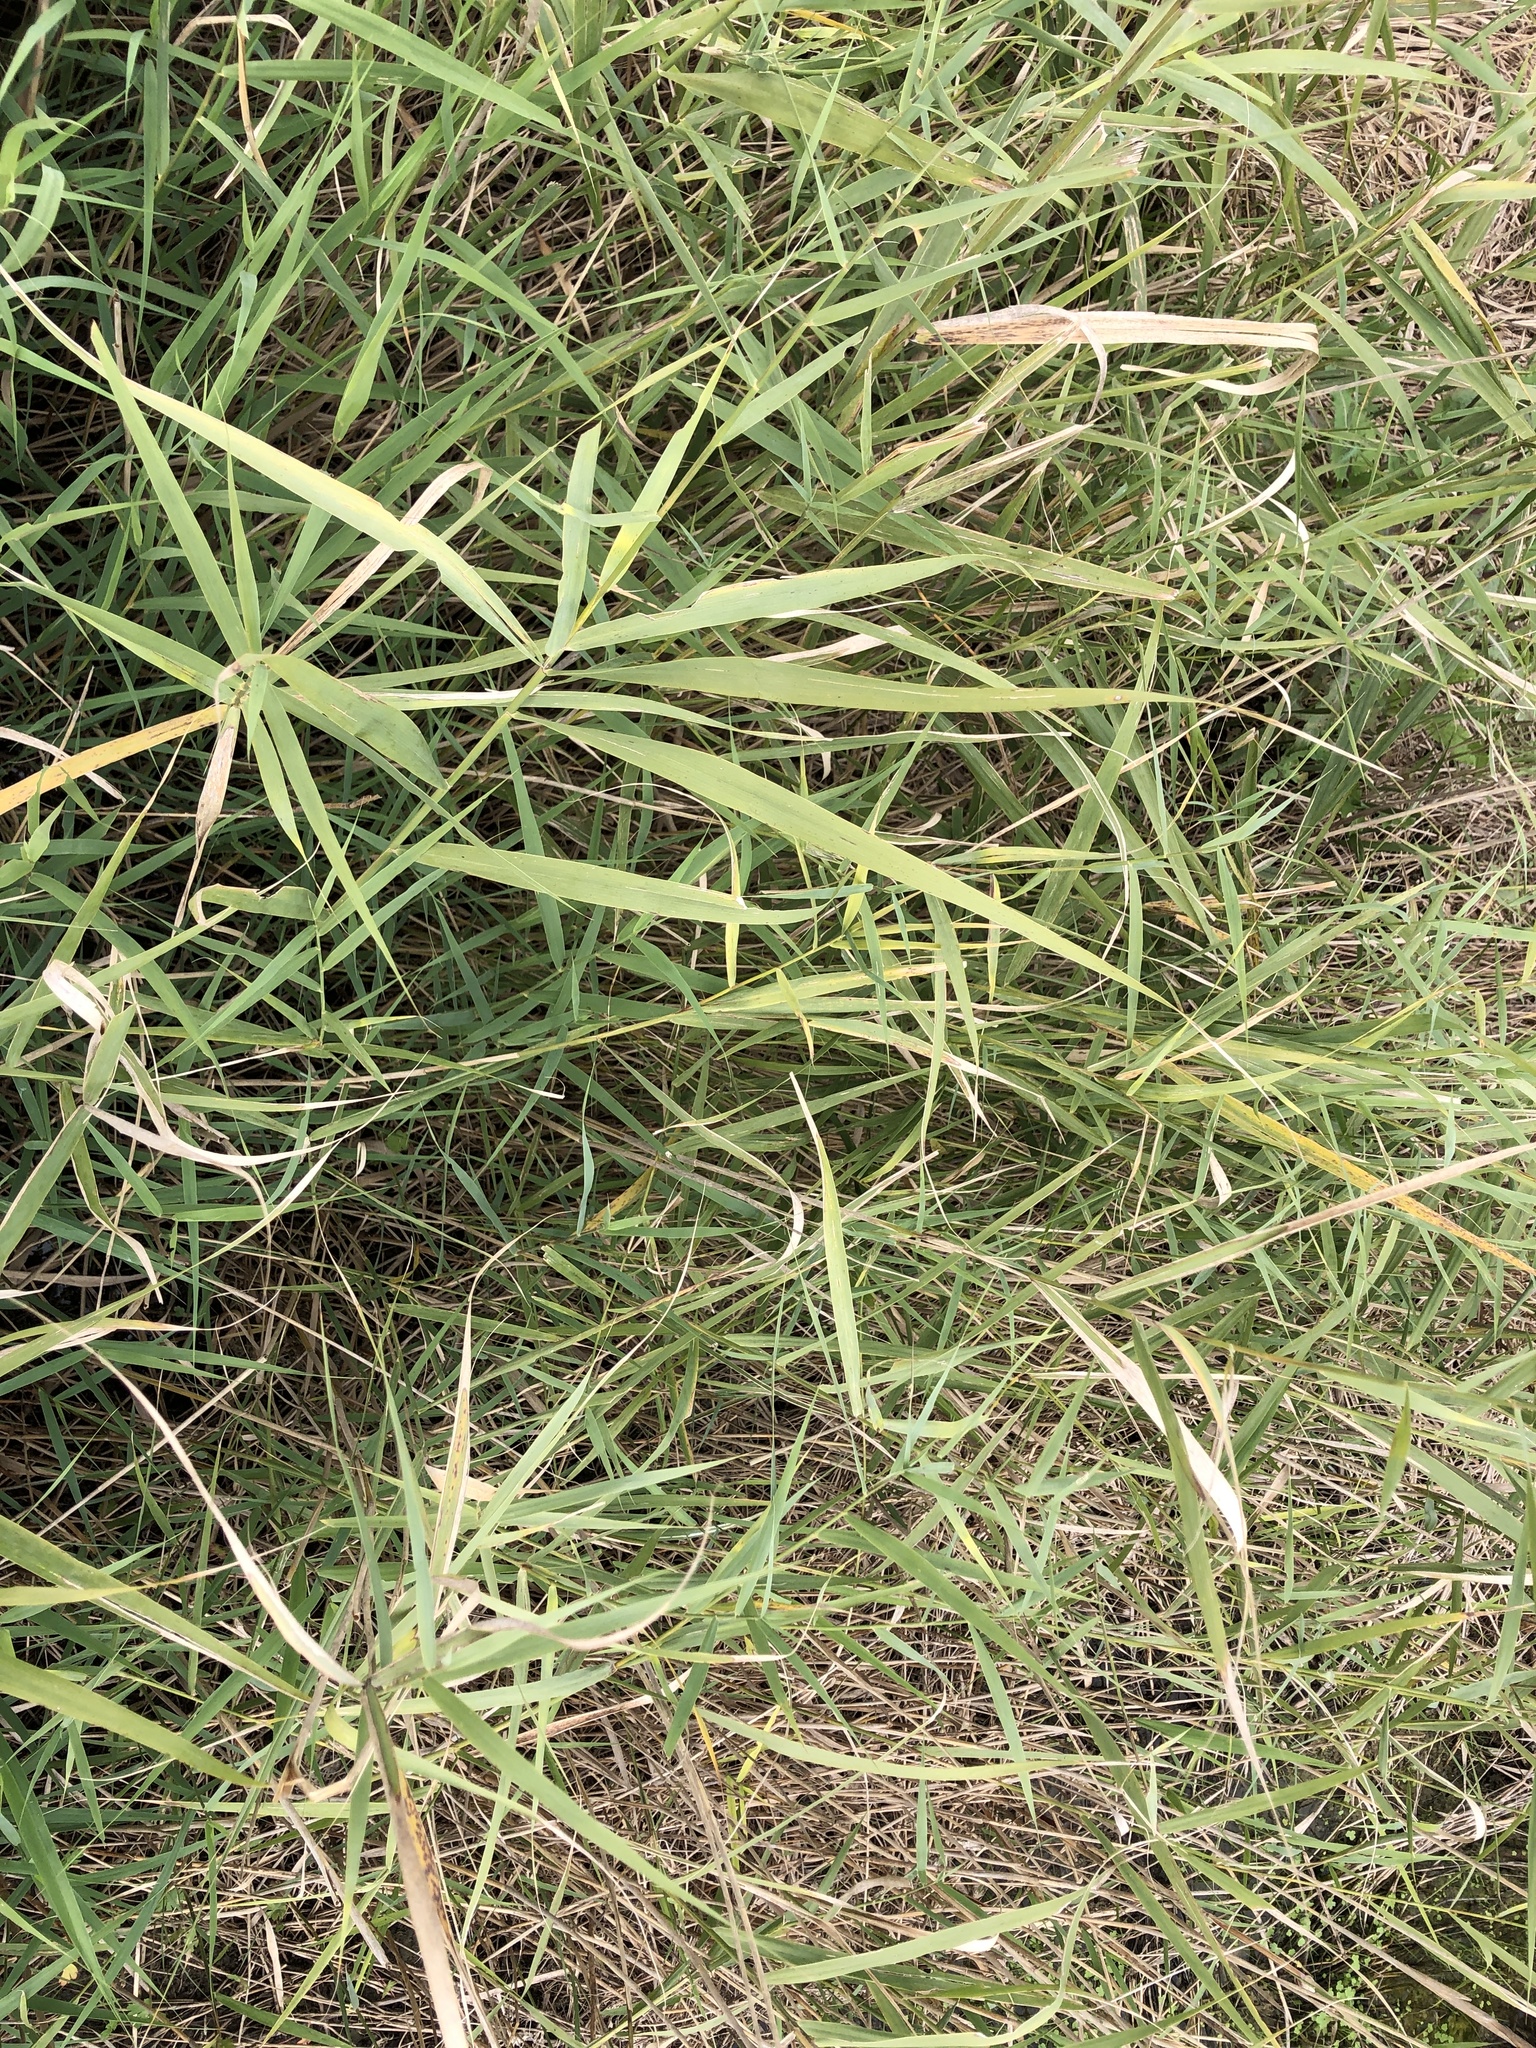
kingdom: Plantae
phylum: Tracheophyta
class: Liliopsida
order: Poales
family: Poaceae
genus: Phragmites
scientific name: Phragmites australis
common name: Common reed
